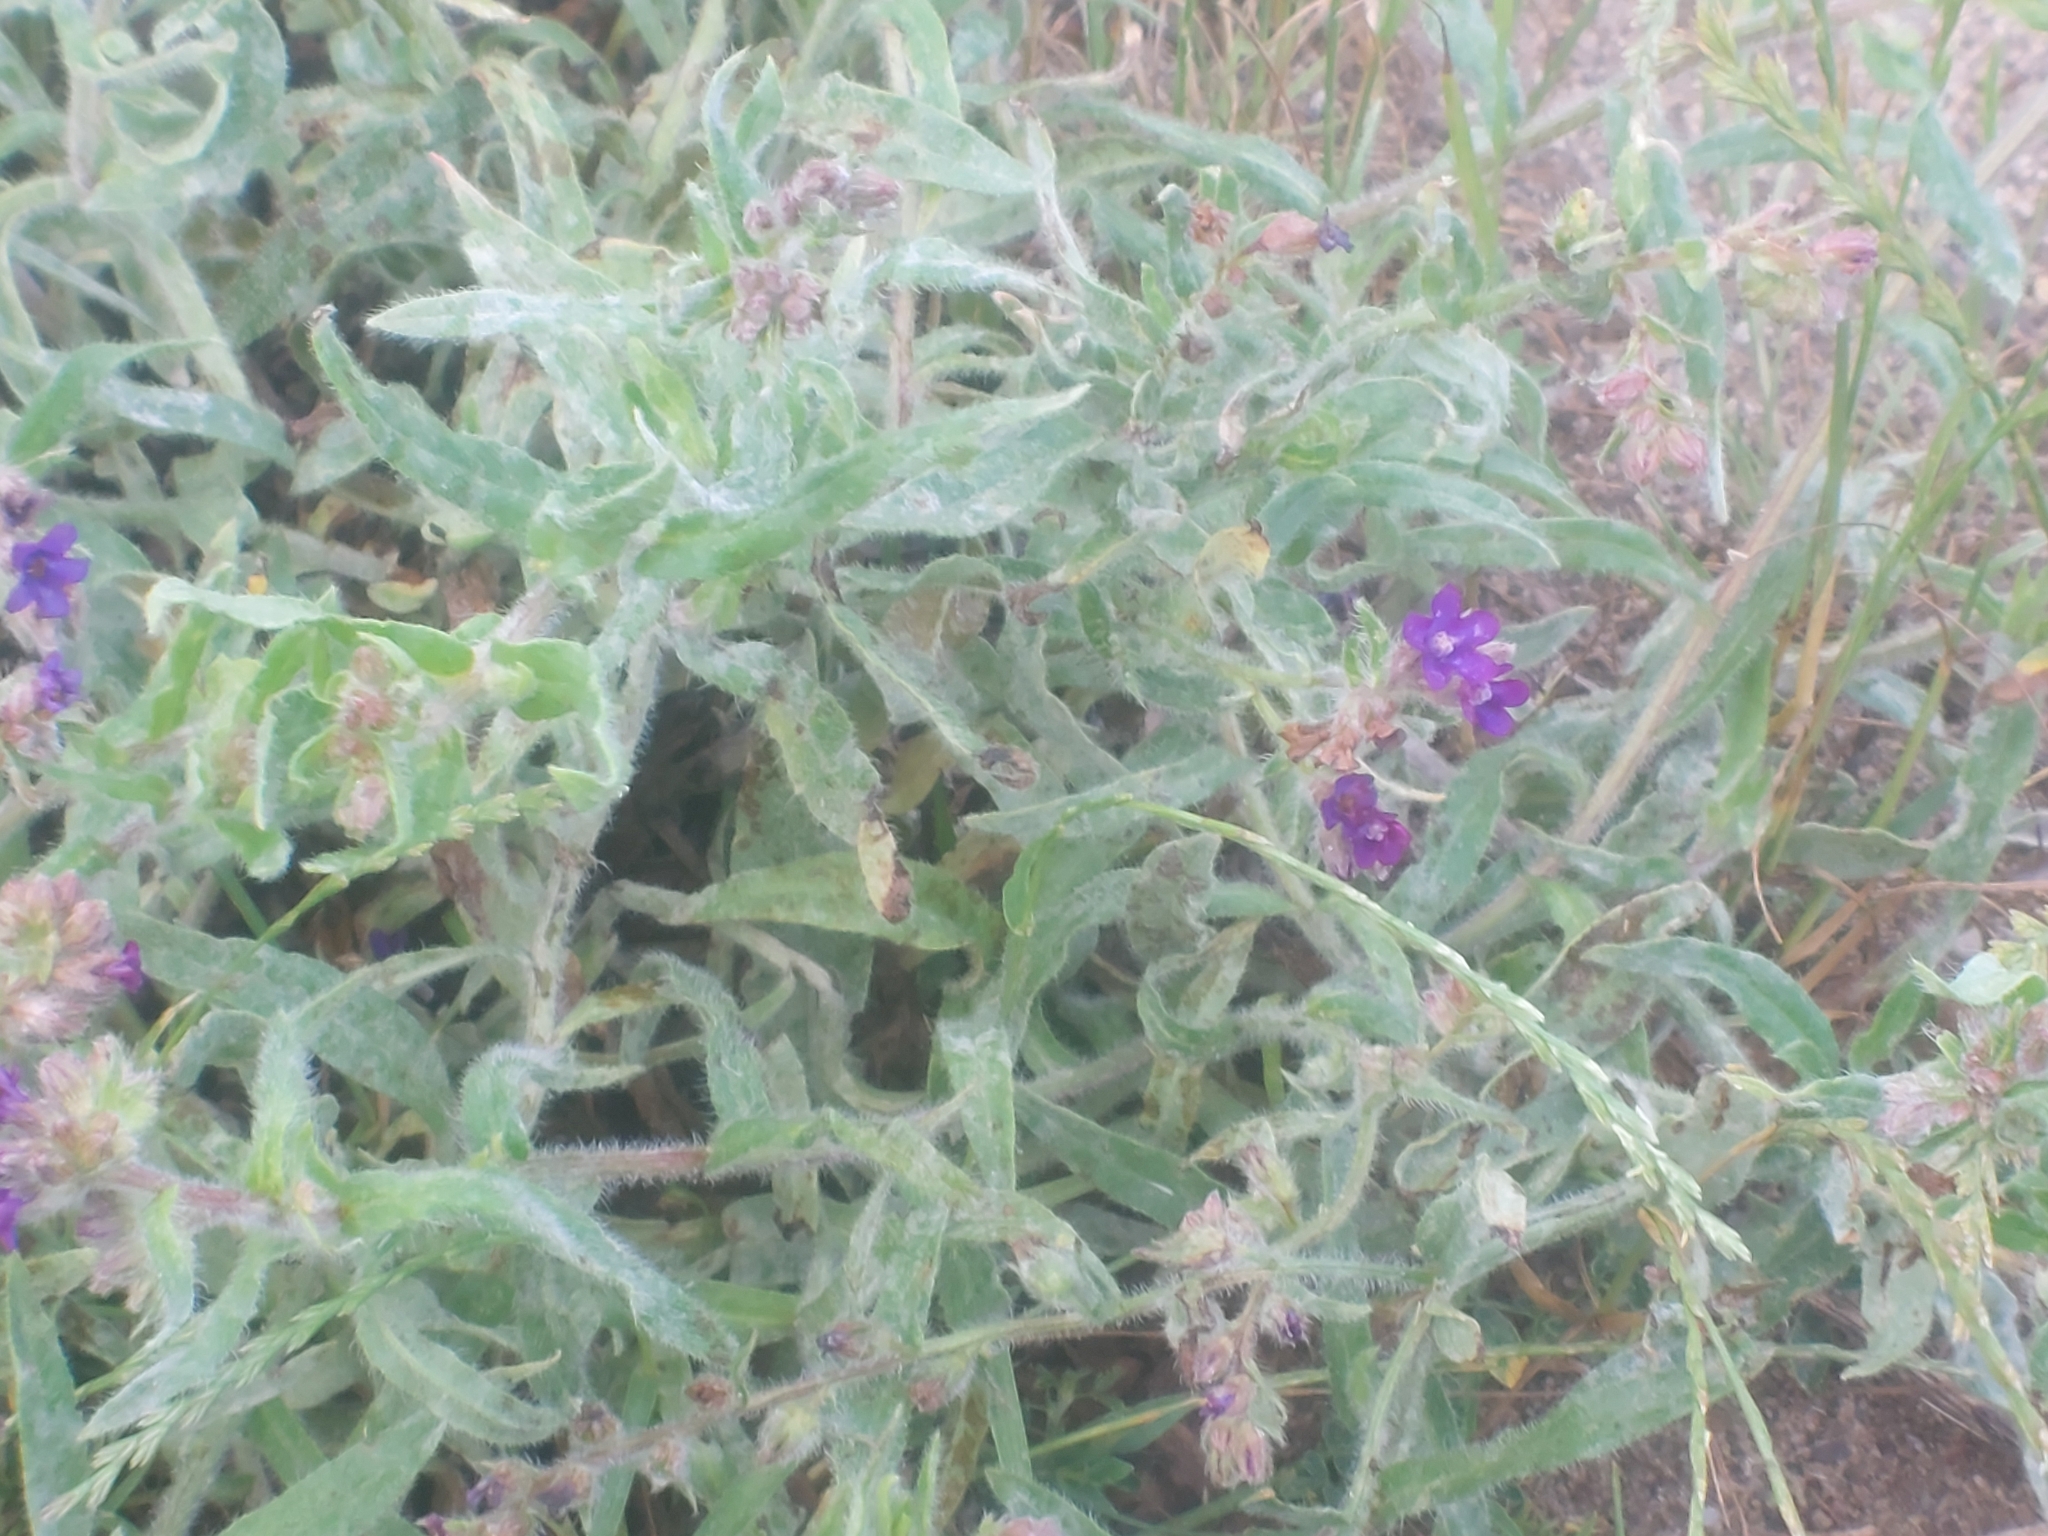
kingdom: Plantae
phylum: Tracheophyta
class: Magnoliopsida
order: Boraginales
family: Boraginaceae
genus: Anchusa
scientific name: Anchusa officinalis
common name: Alkanet
